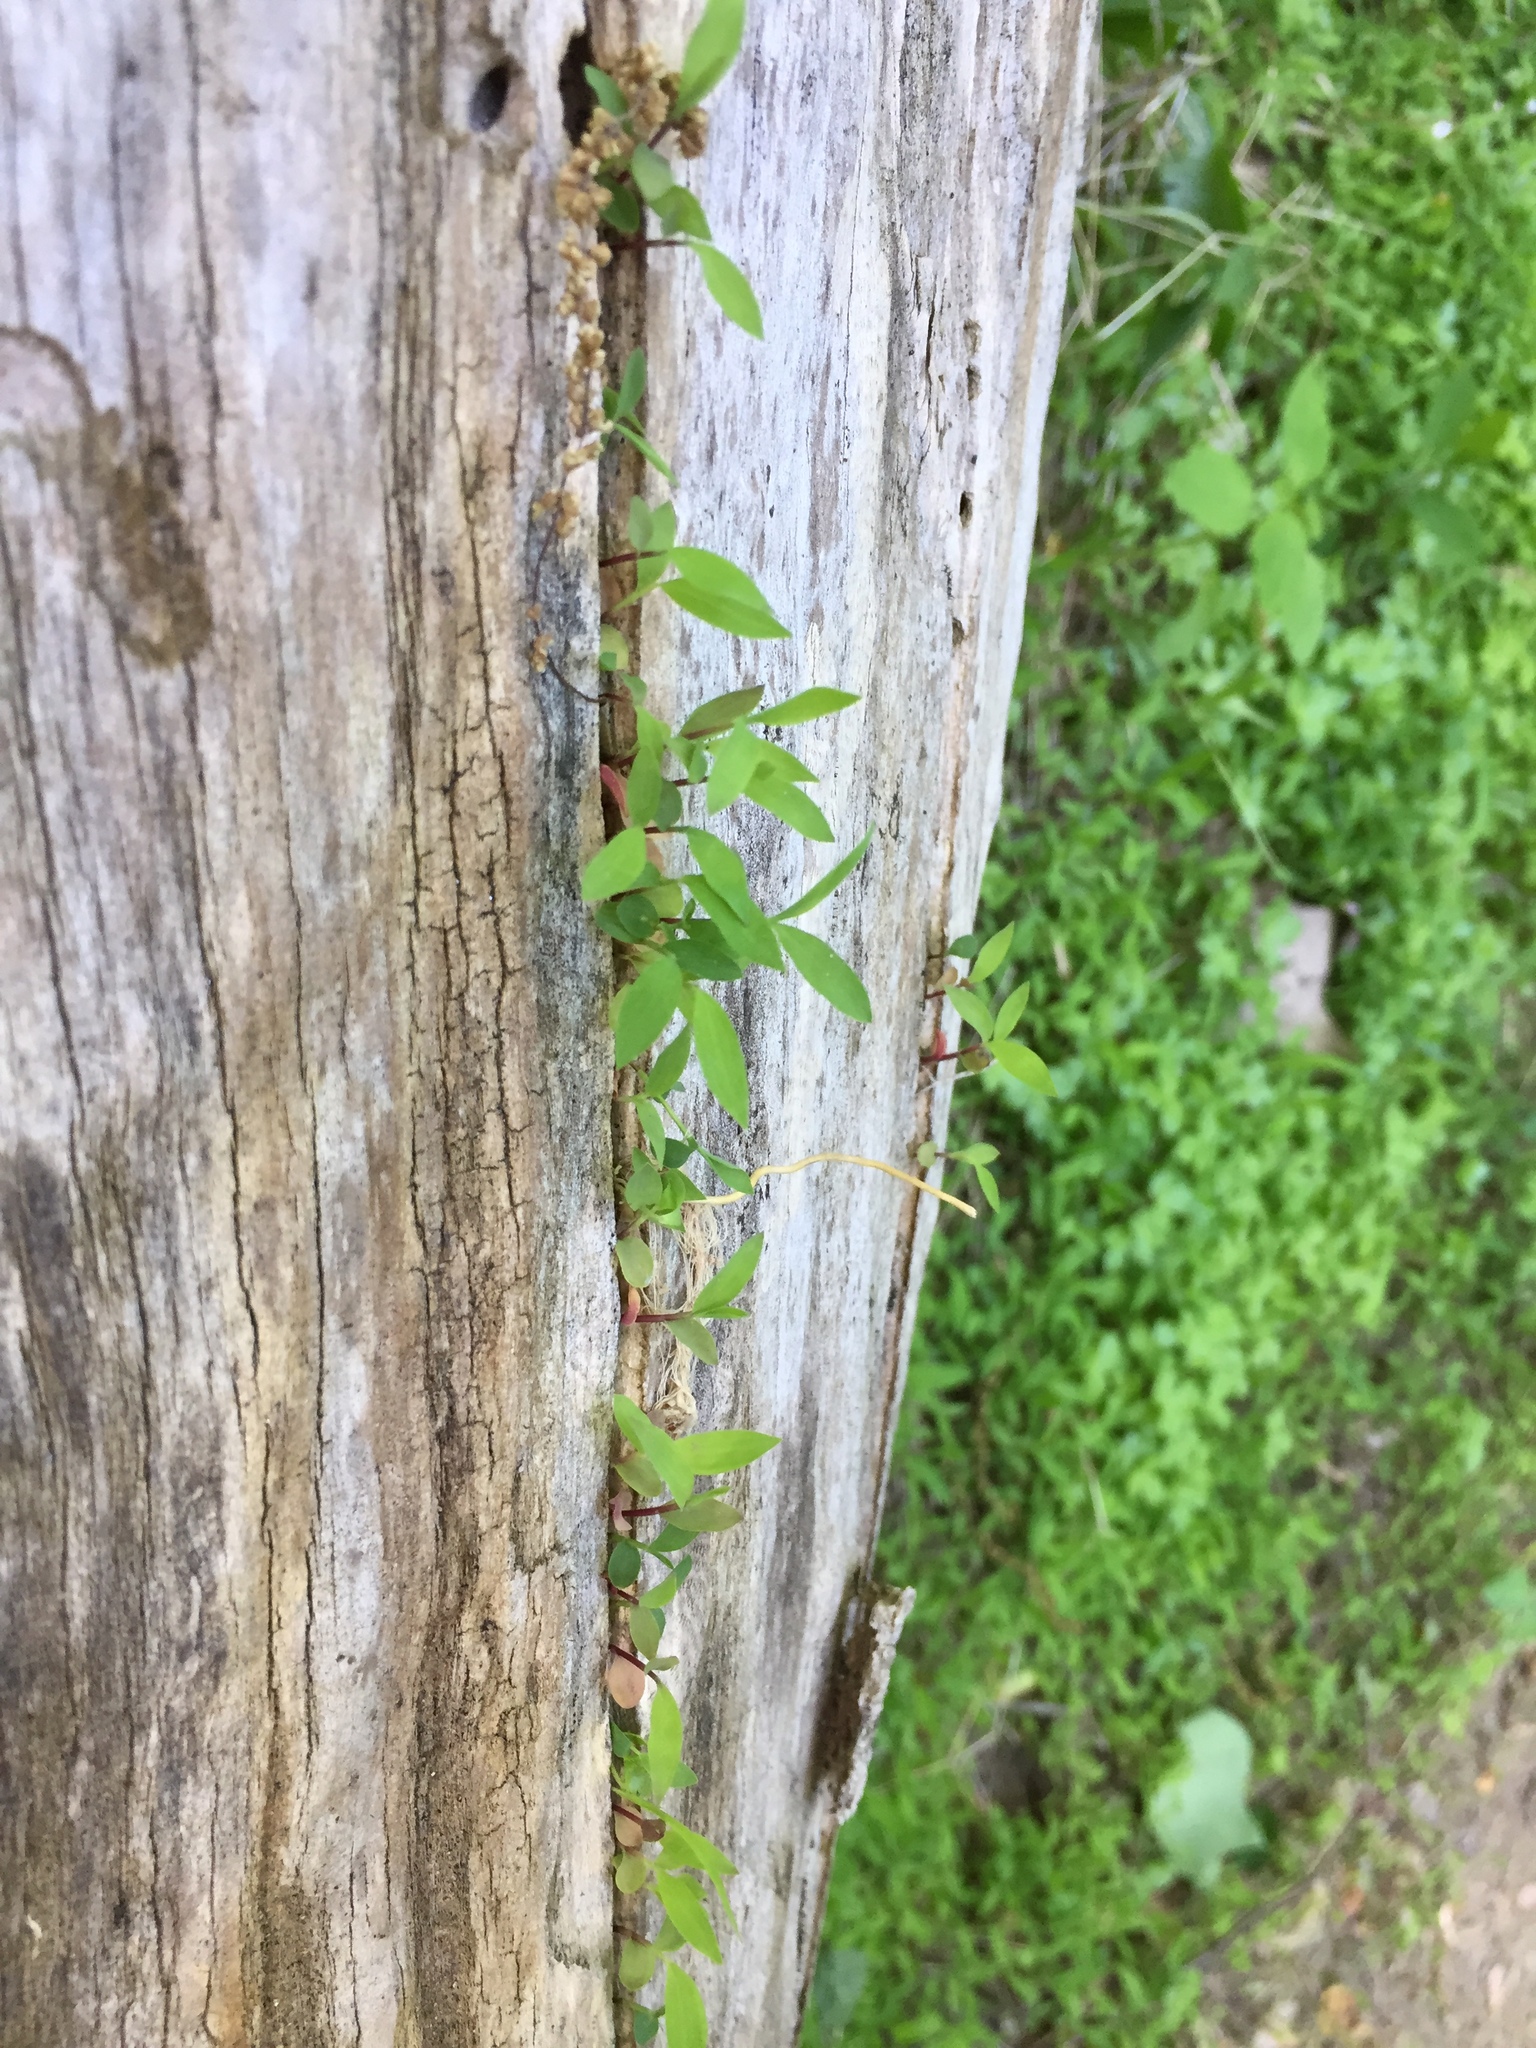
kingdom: Plantae
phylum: Tracheophyta
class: Liliopsida
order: Poales
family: Poaceae
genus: Microstegium
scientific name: Microstegium vimineum
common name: Japanese stiltgrass
